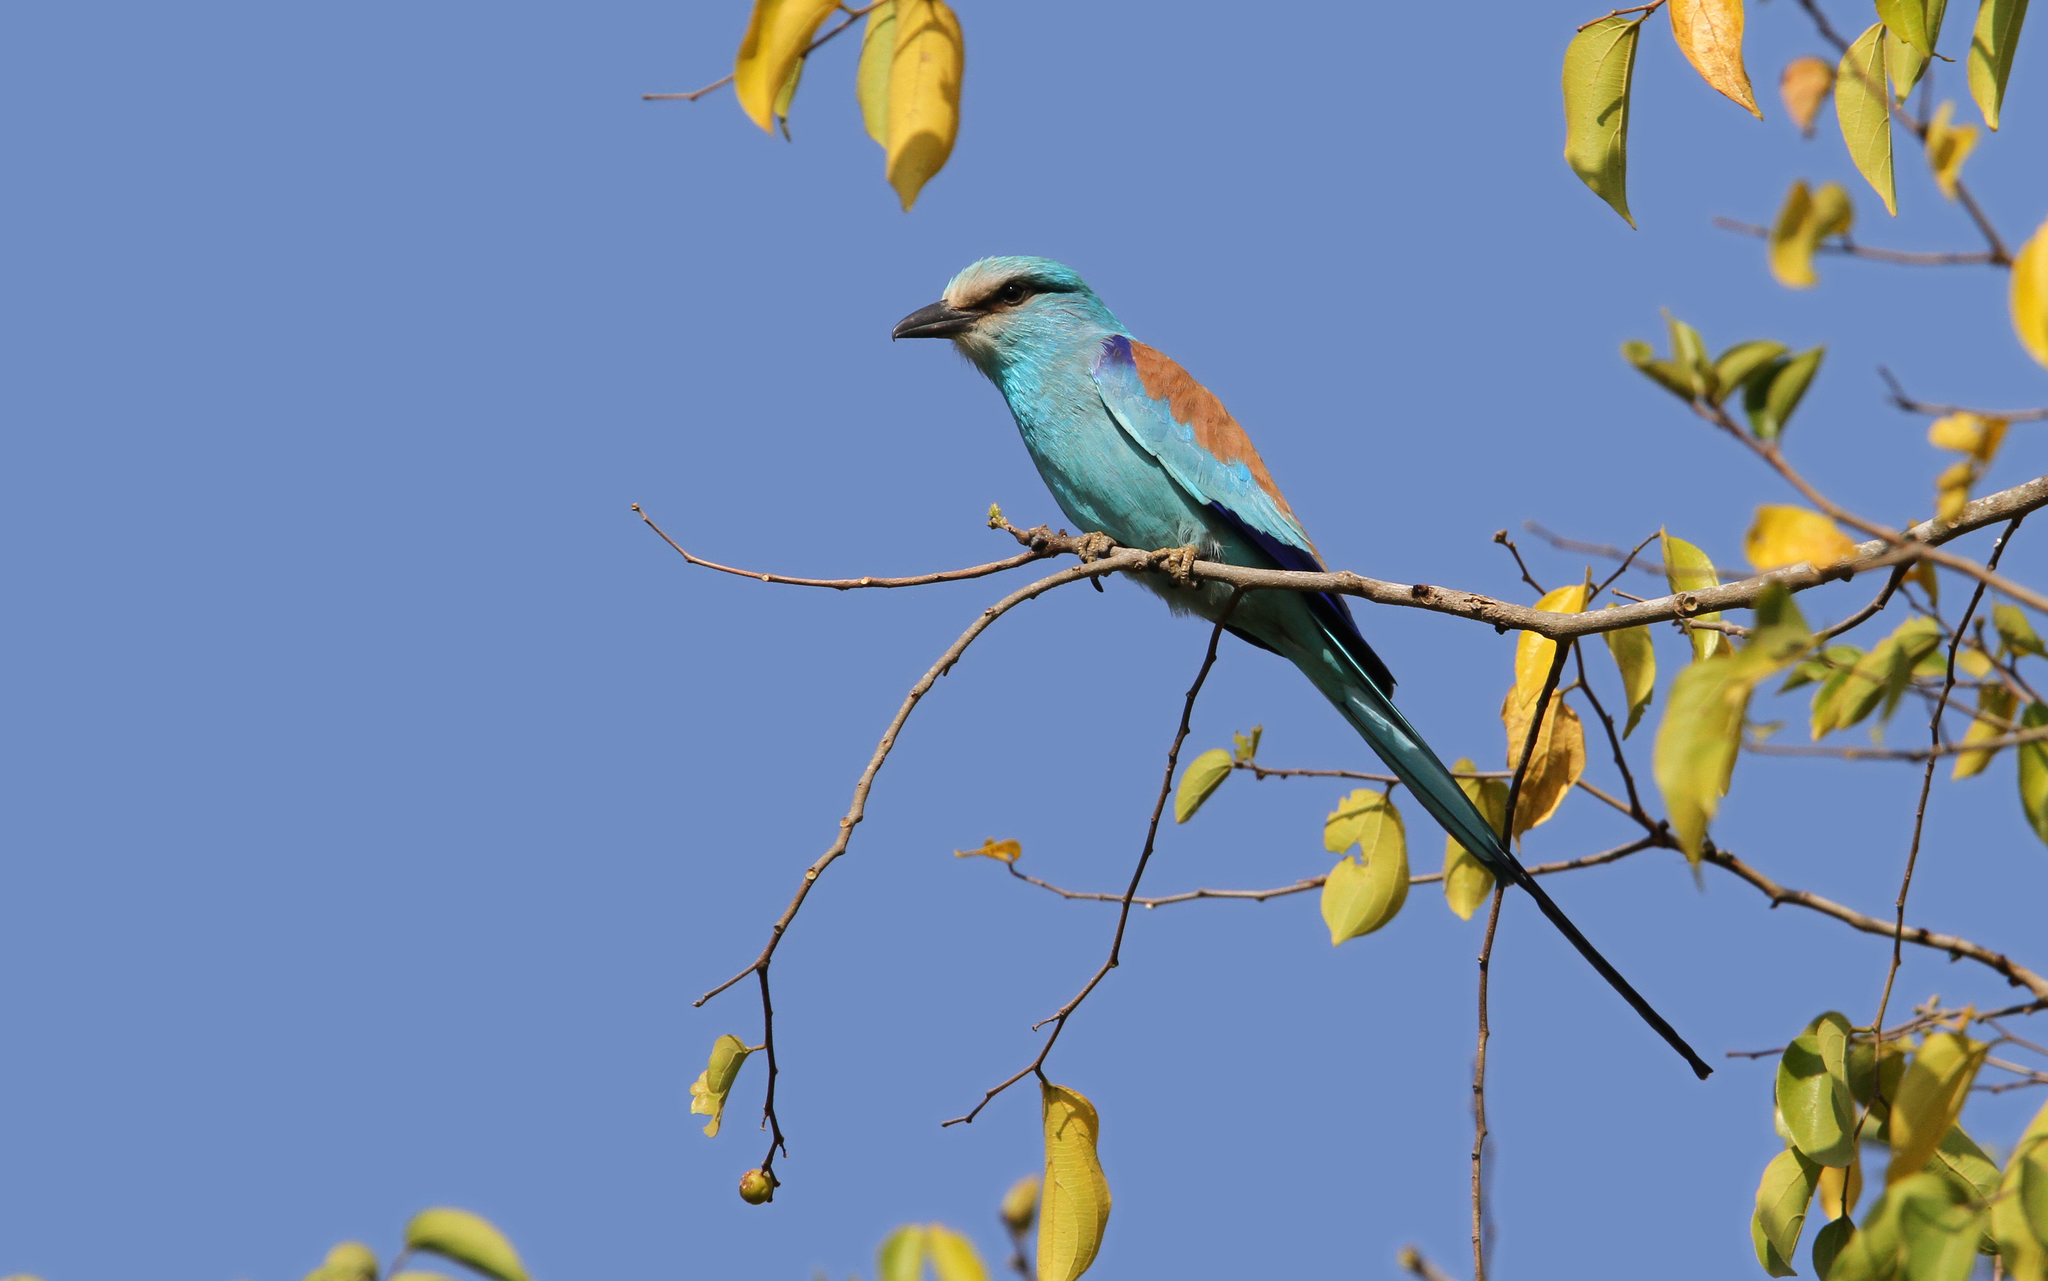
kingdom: Animalia
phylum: Chordata
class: Aves
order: Coraciiformes
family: Coraciidae
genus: Coracias
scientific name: Coracias abyssinicus
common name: Abyssinian roller
